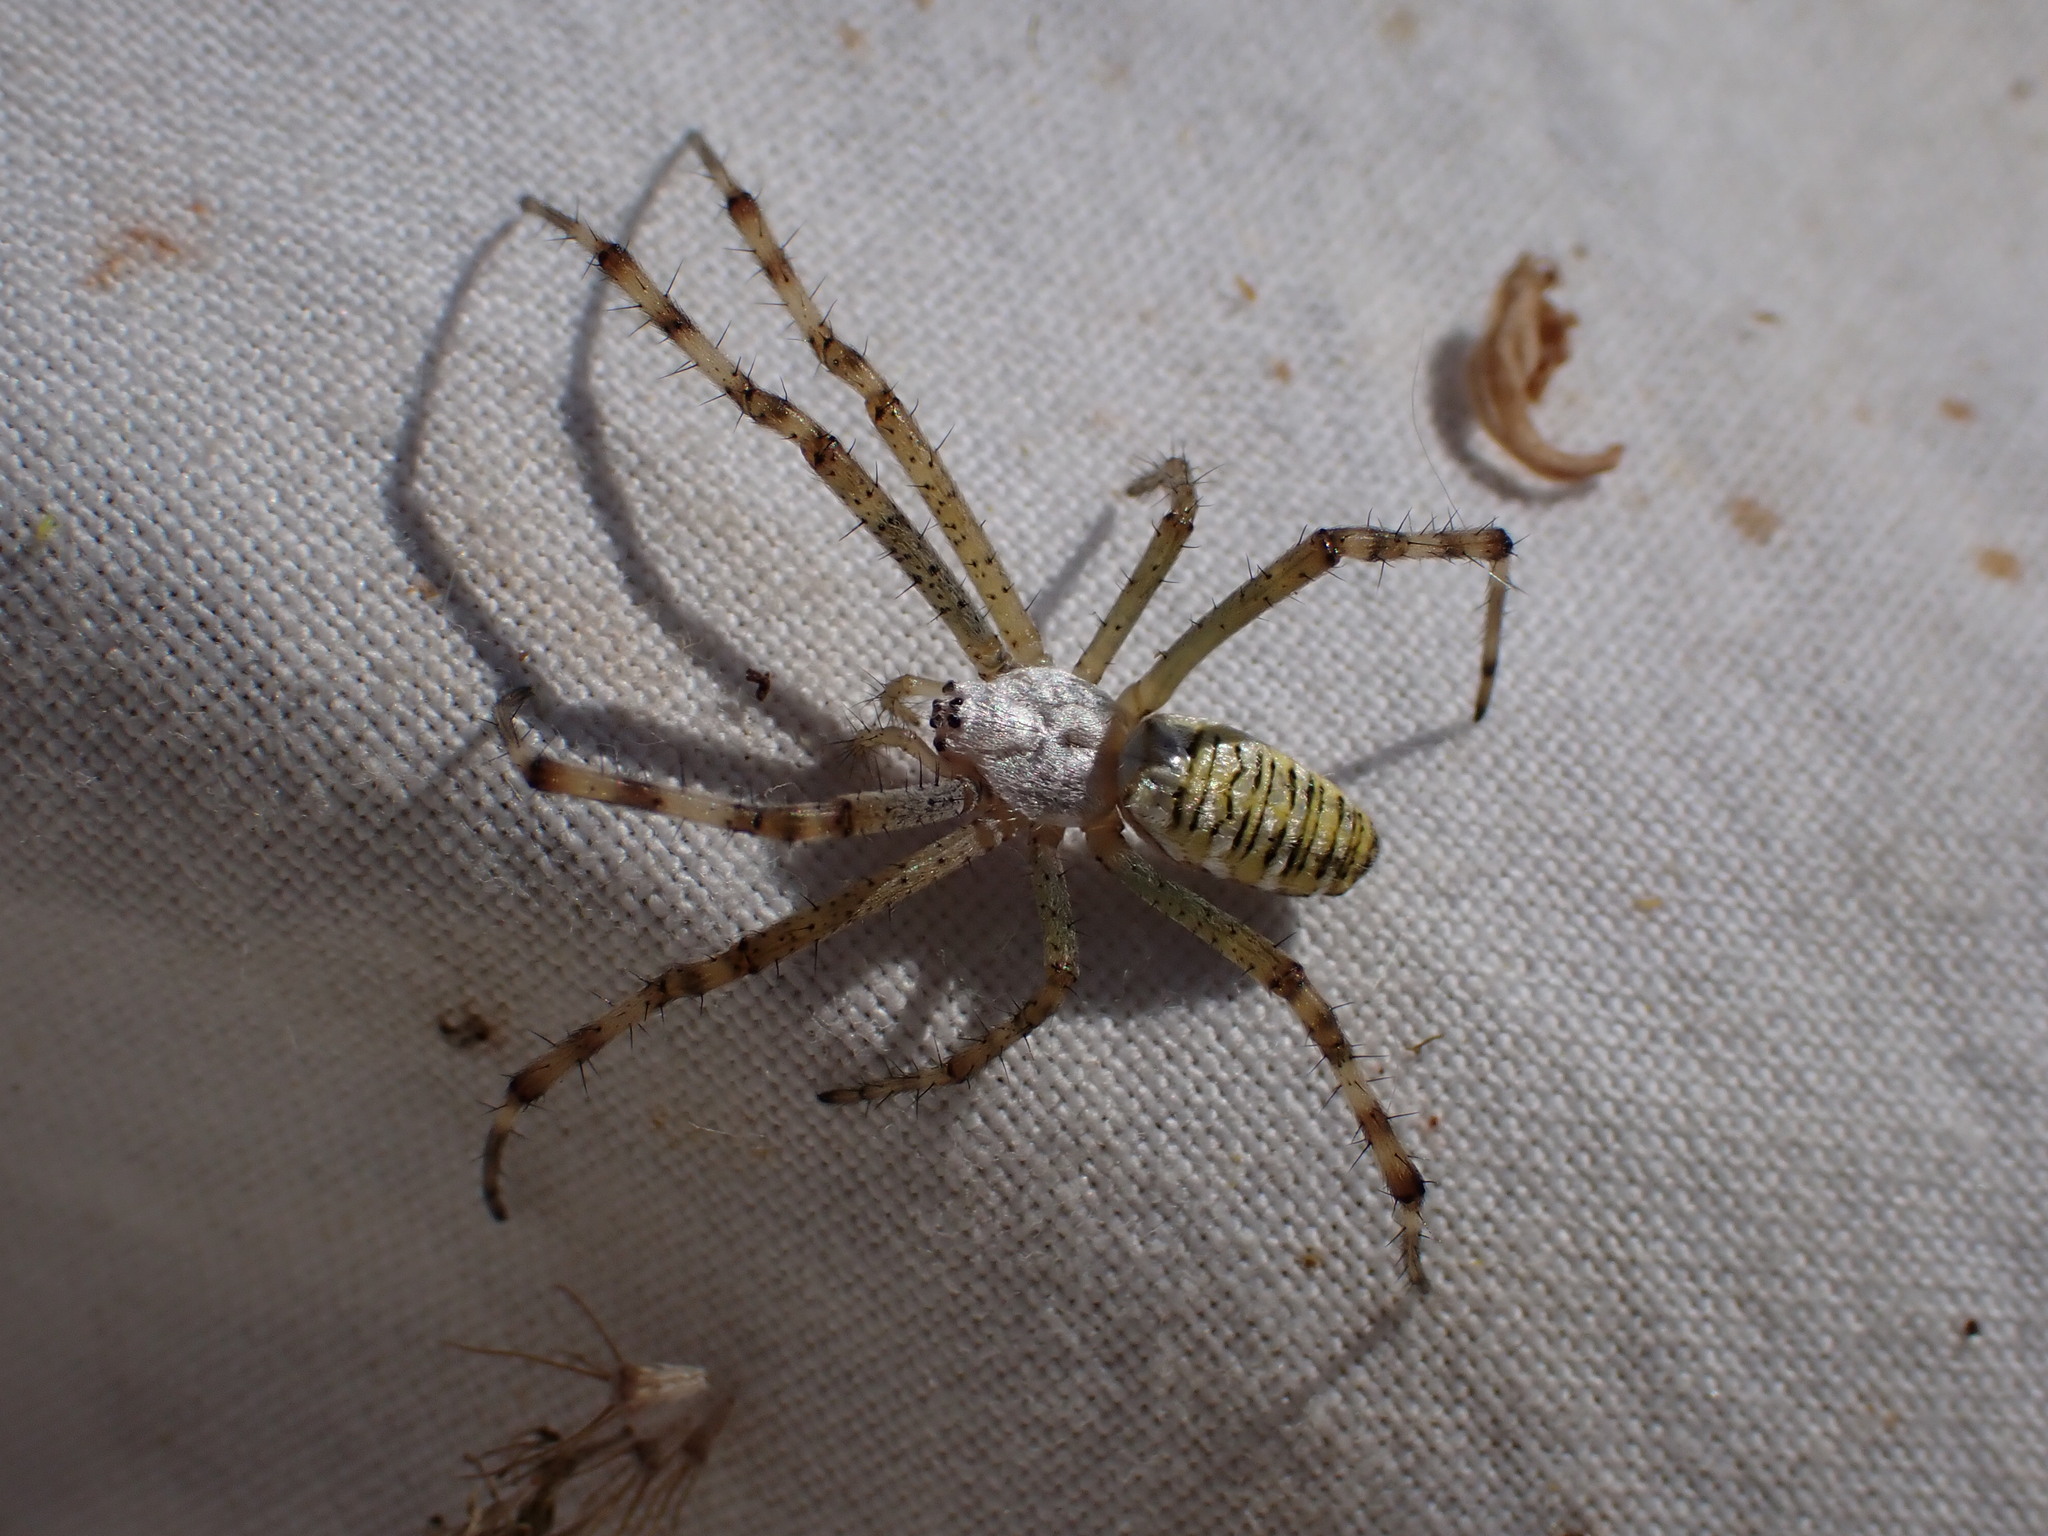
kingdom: Animalia
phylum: Arthropoda
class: Arachnida
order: Araneae
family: Araneidae
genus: Argiope
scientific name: Argiope bruennichi
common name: Wasp spider
